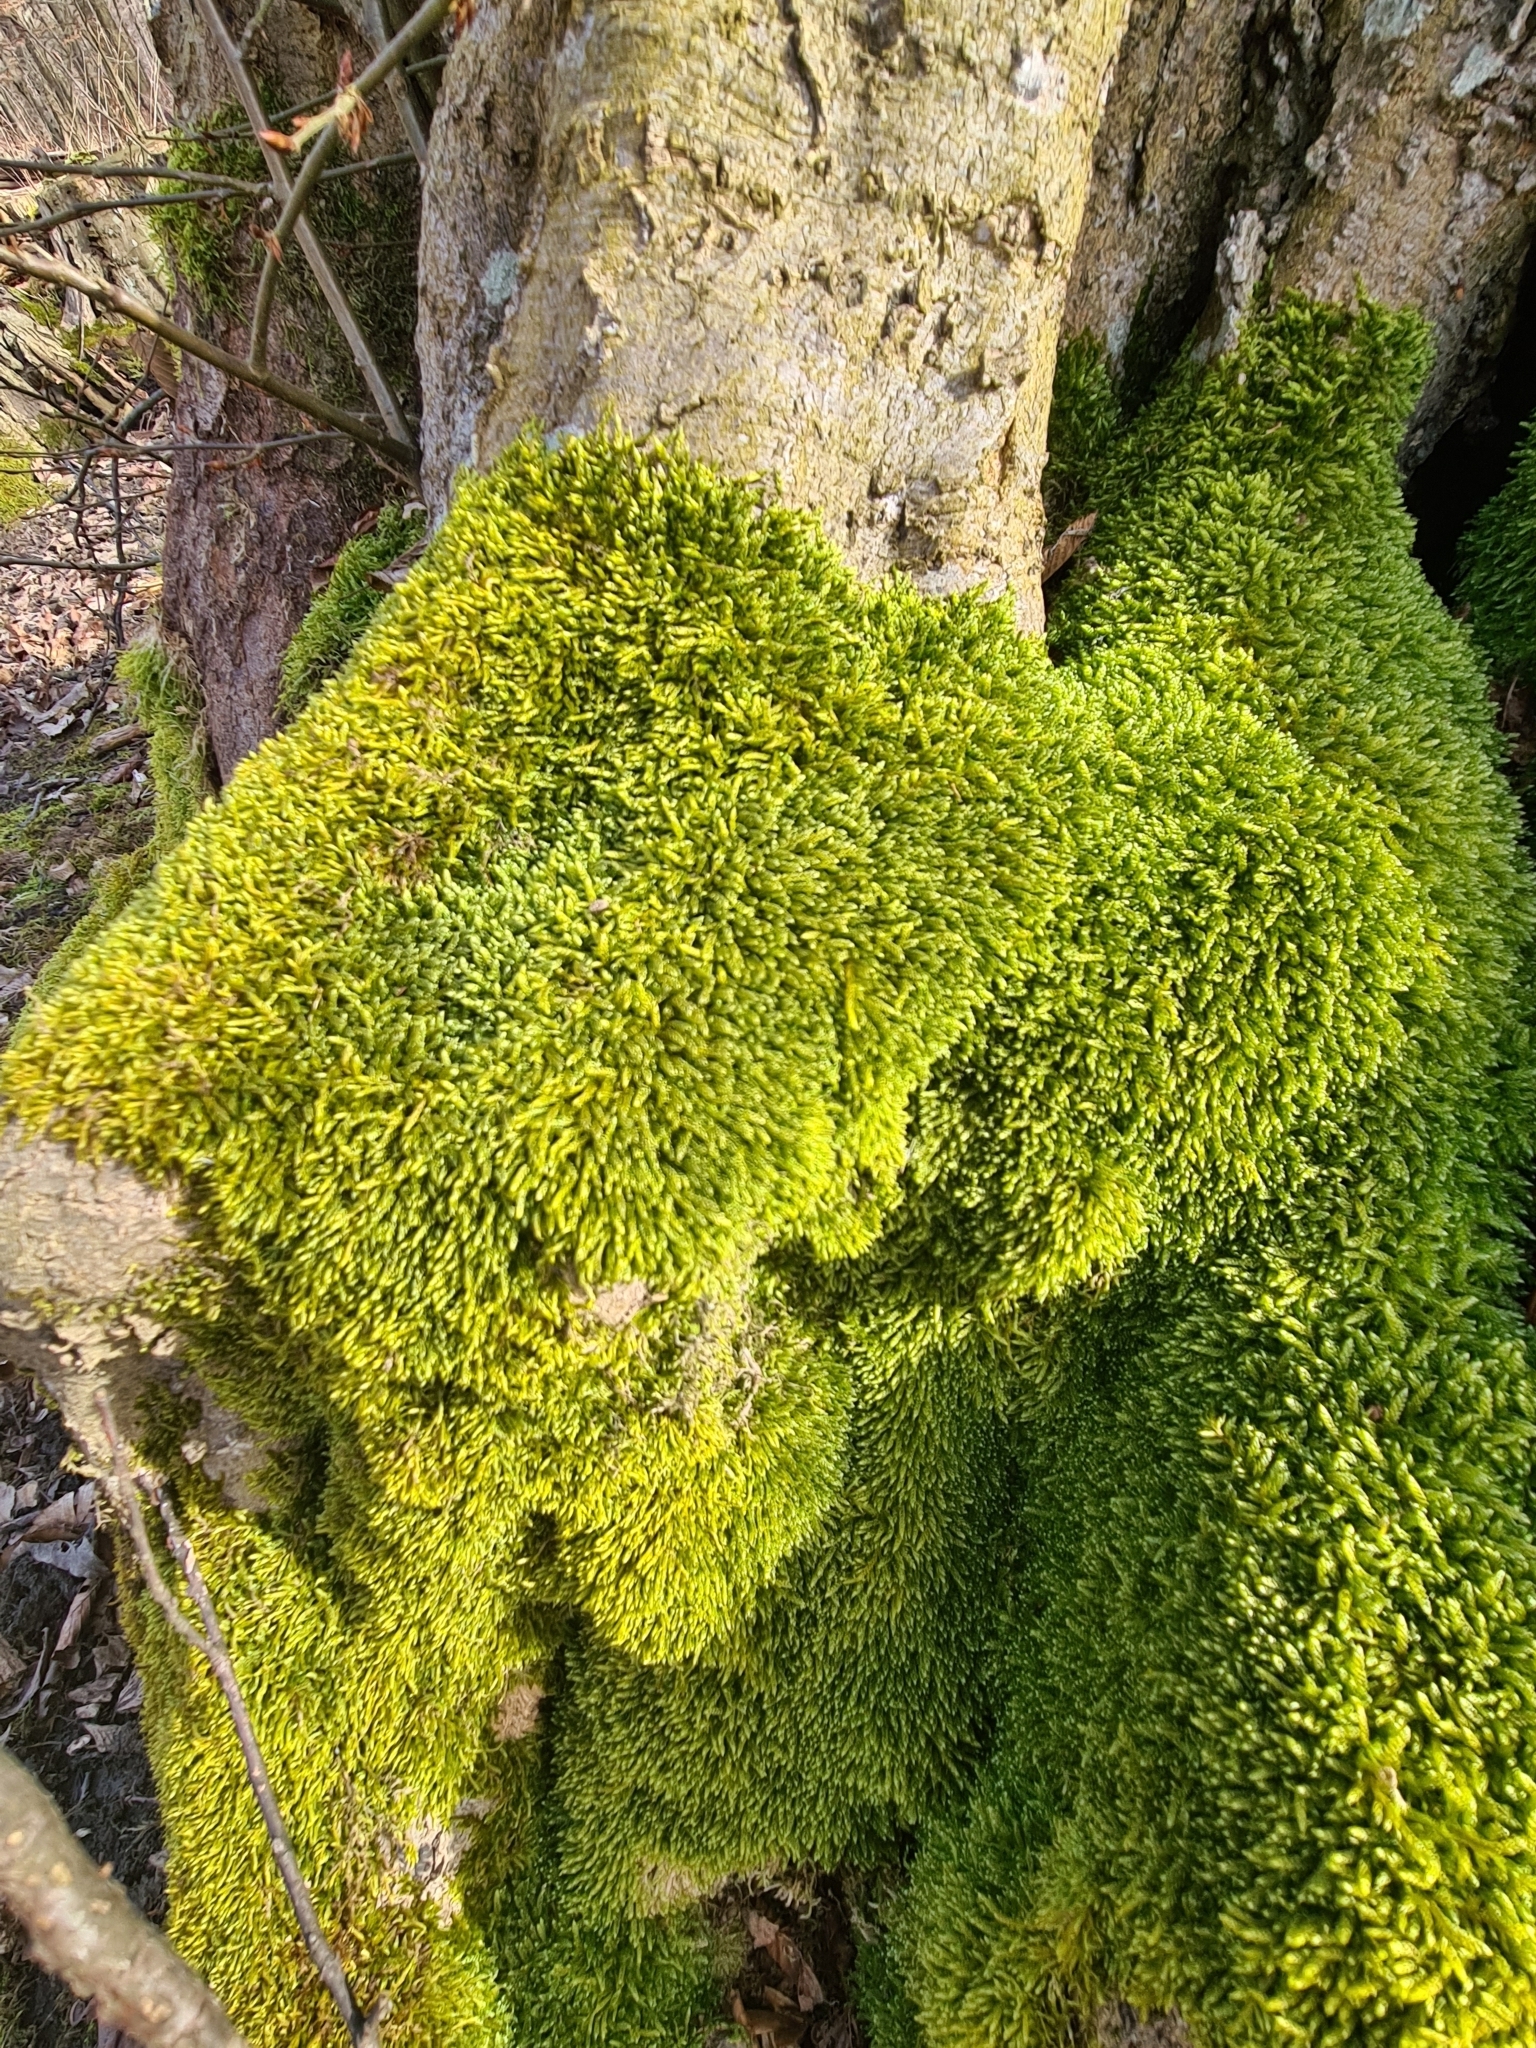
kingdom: Plantae
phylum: Bryophyta
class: Bryopsida
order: Hypnales
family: Hypnaceae
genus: Hypnum
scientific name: Hypnum cupressiforme
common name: Cypress-leaved plait-moss
